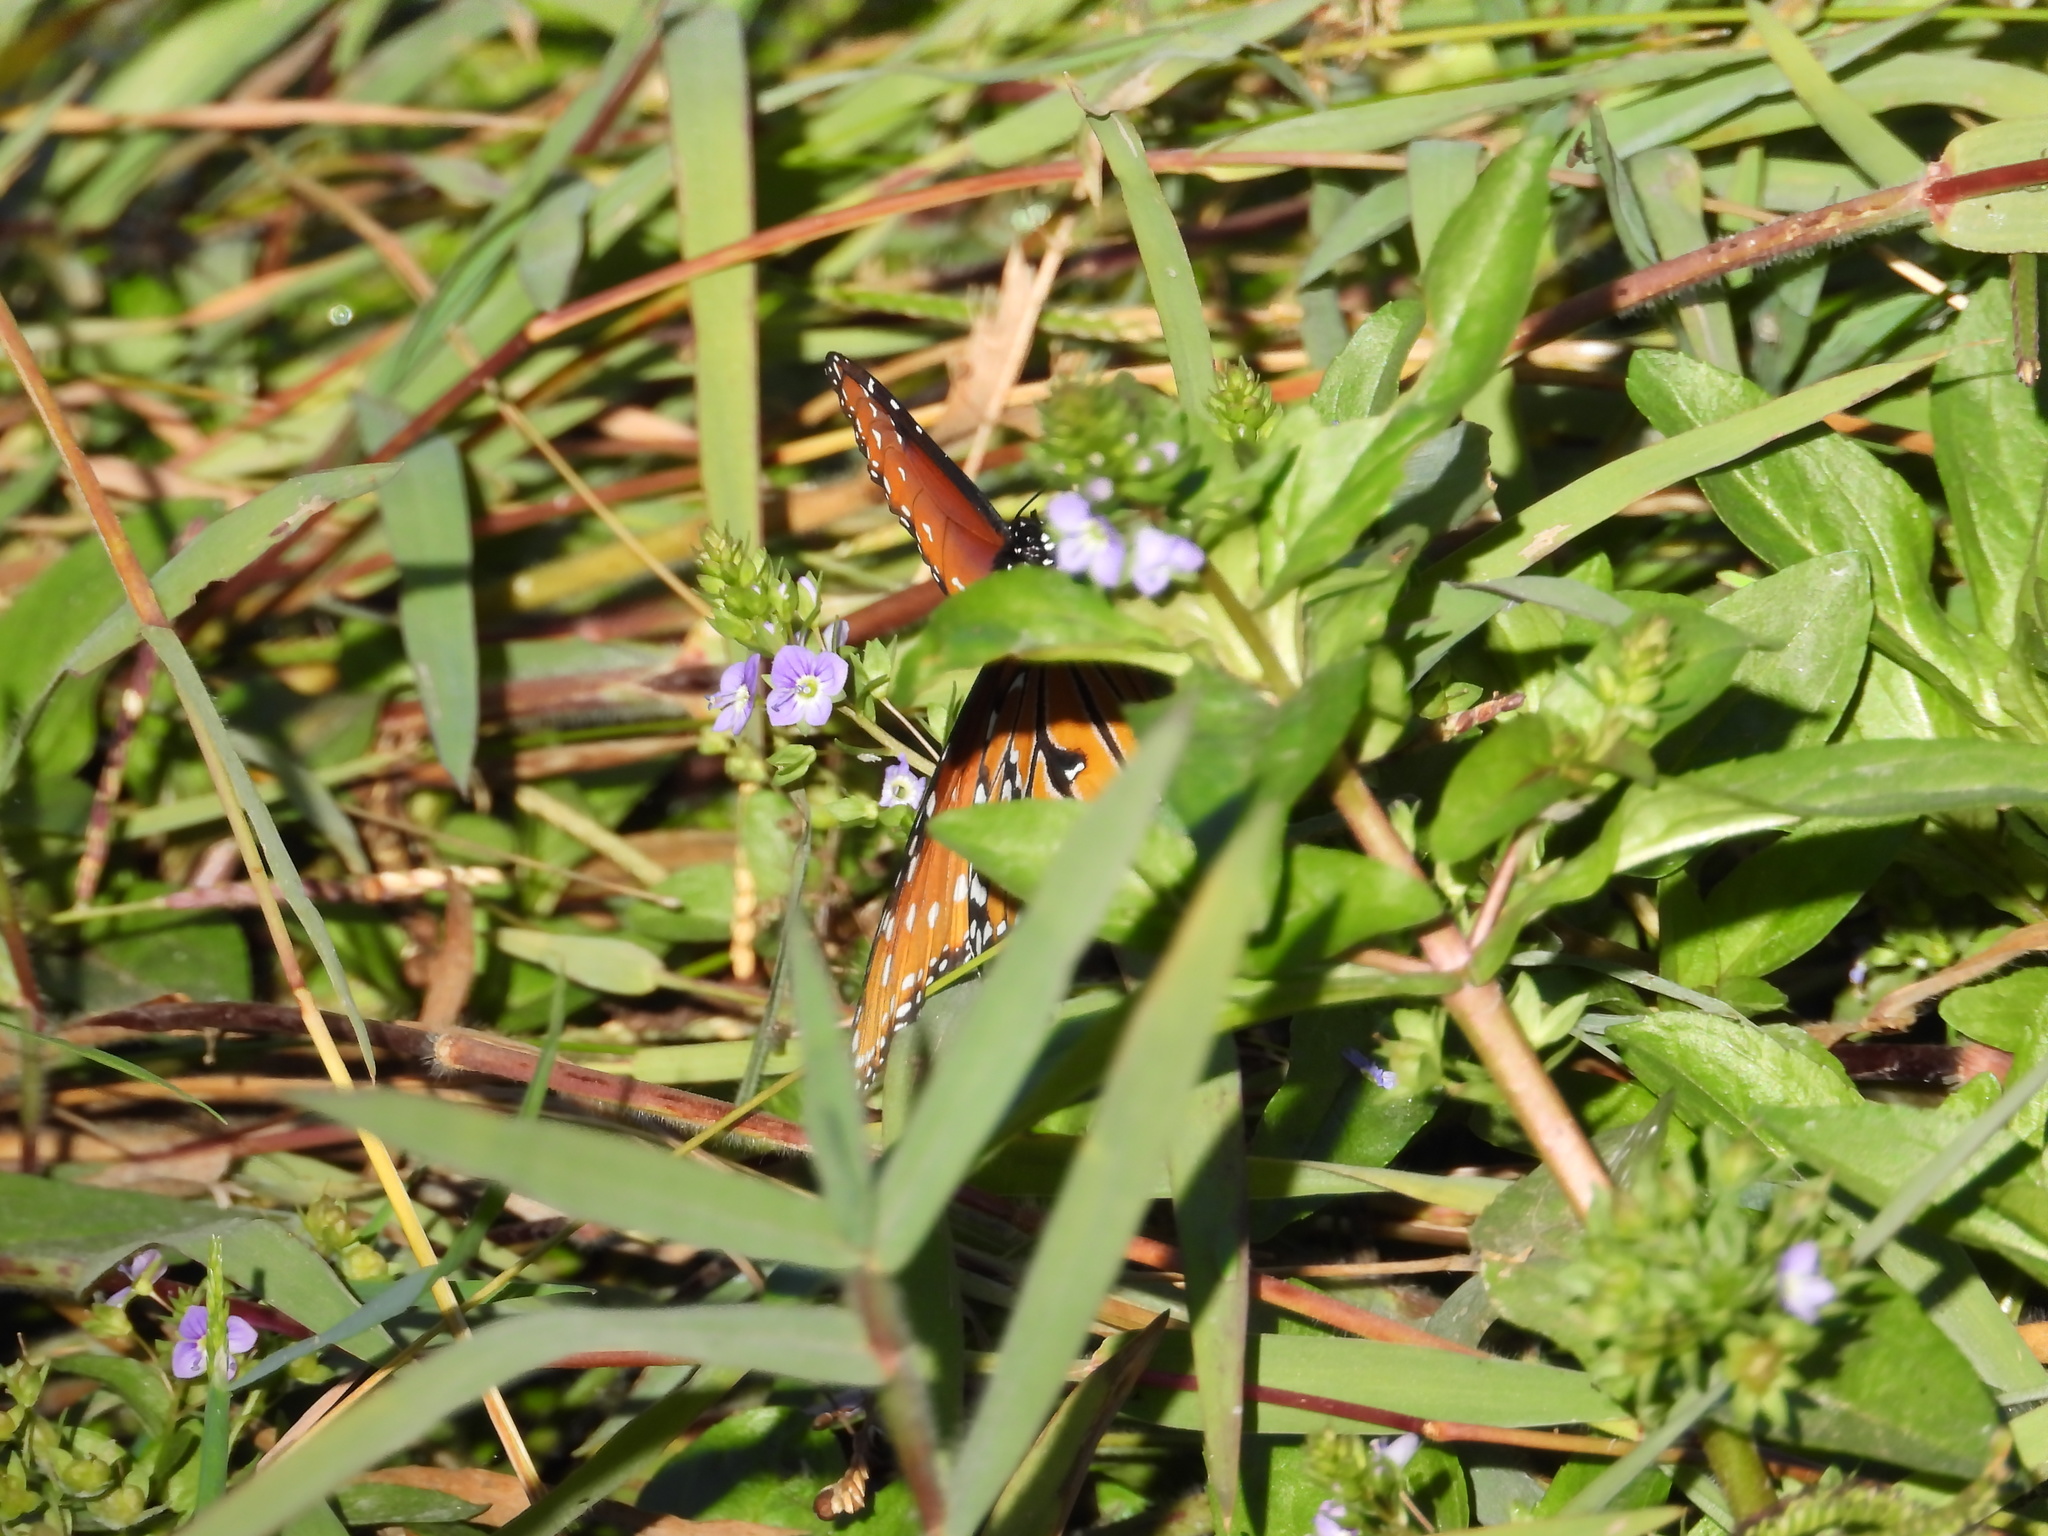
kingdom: Animalia
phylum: Arthropoda
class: Insecta
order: Lepidoptera
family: Nymphalidae
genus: Danaus
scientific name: Danaus gilippus
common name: Queen
